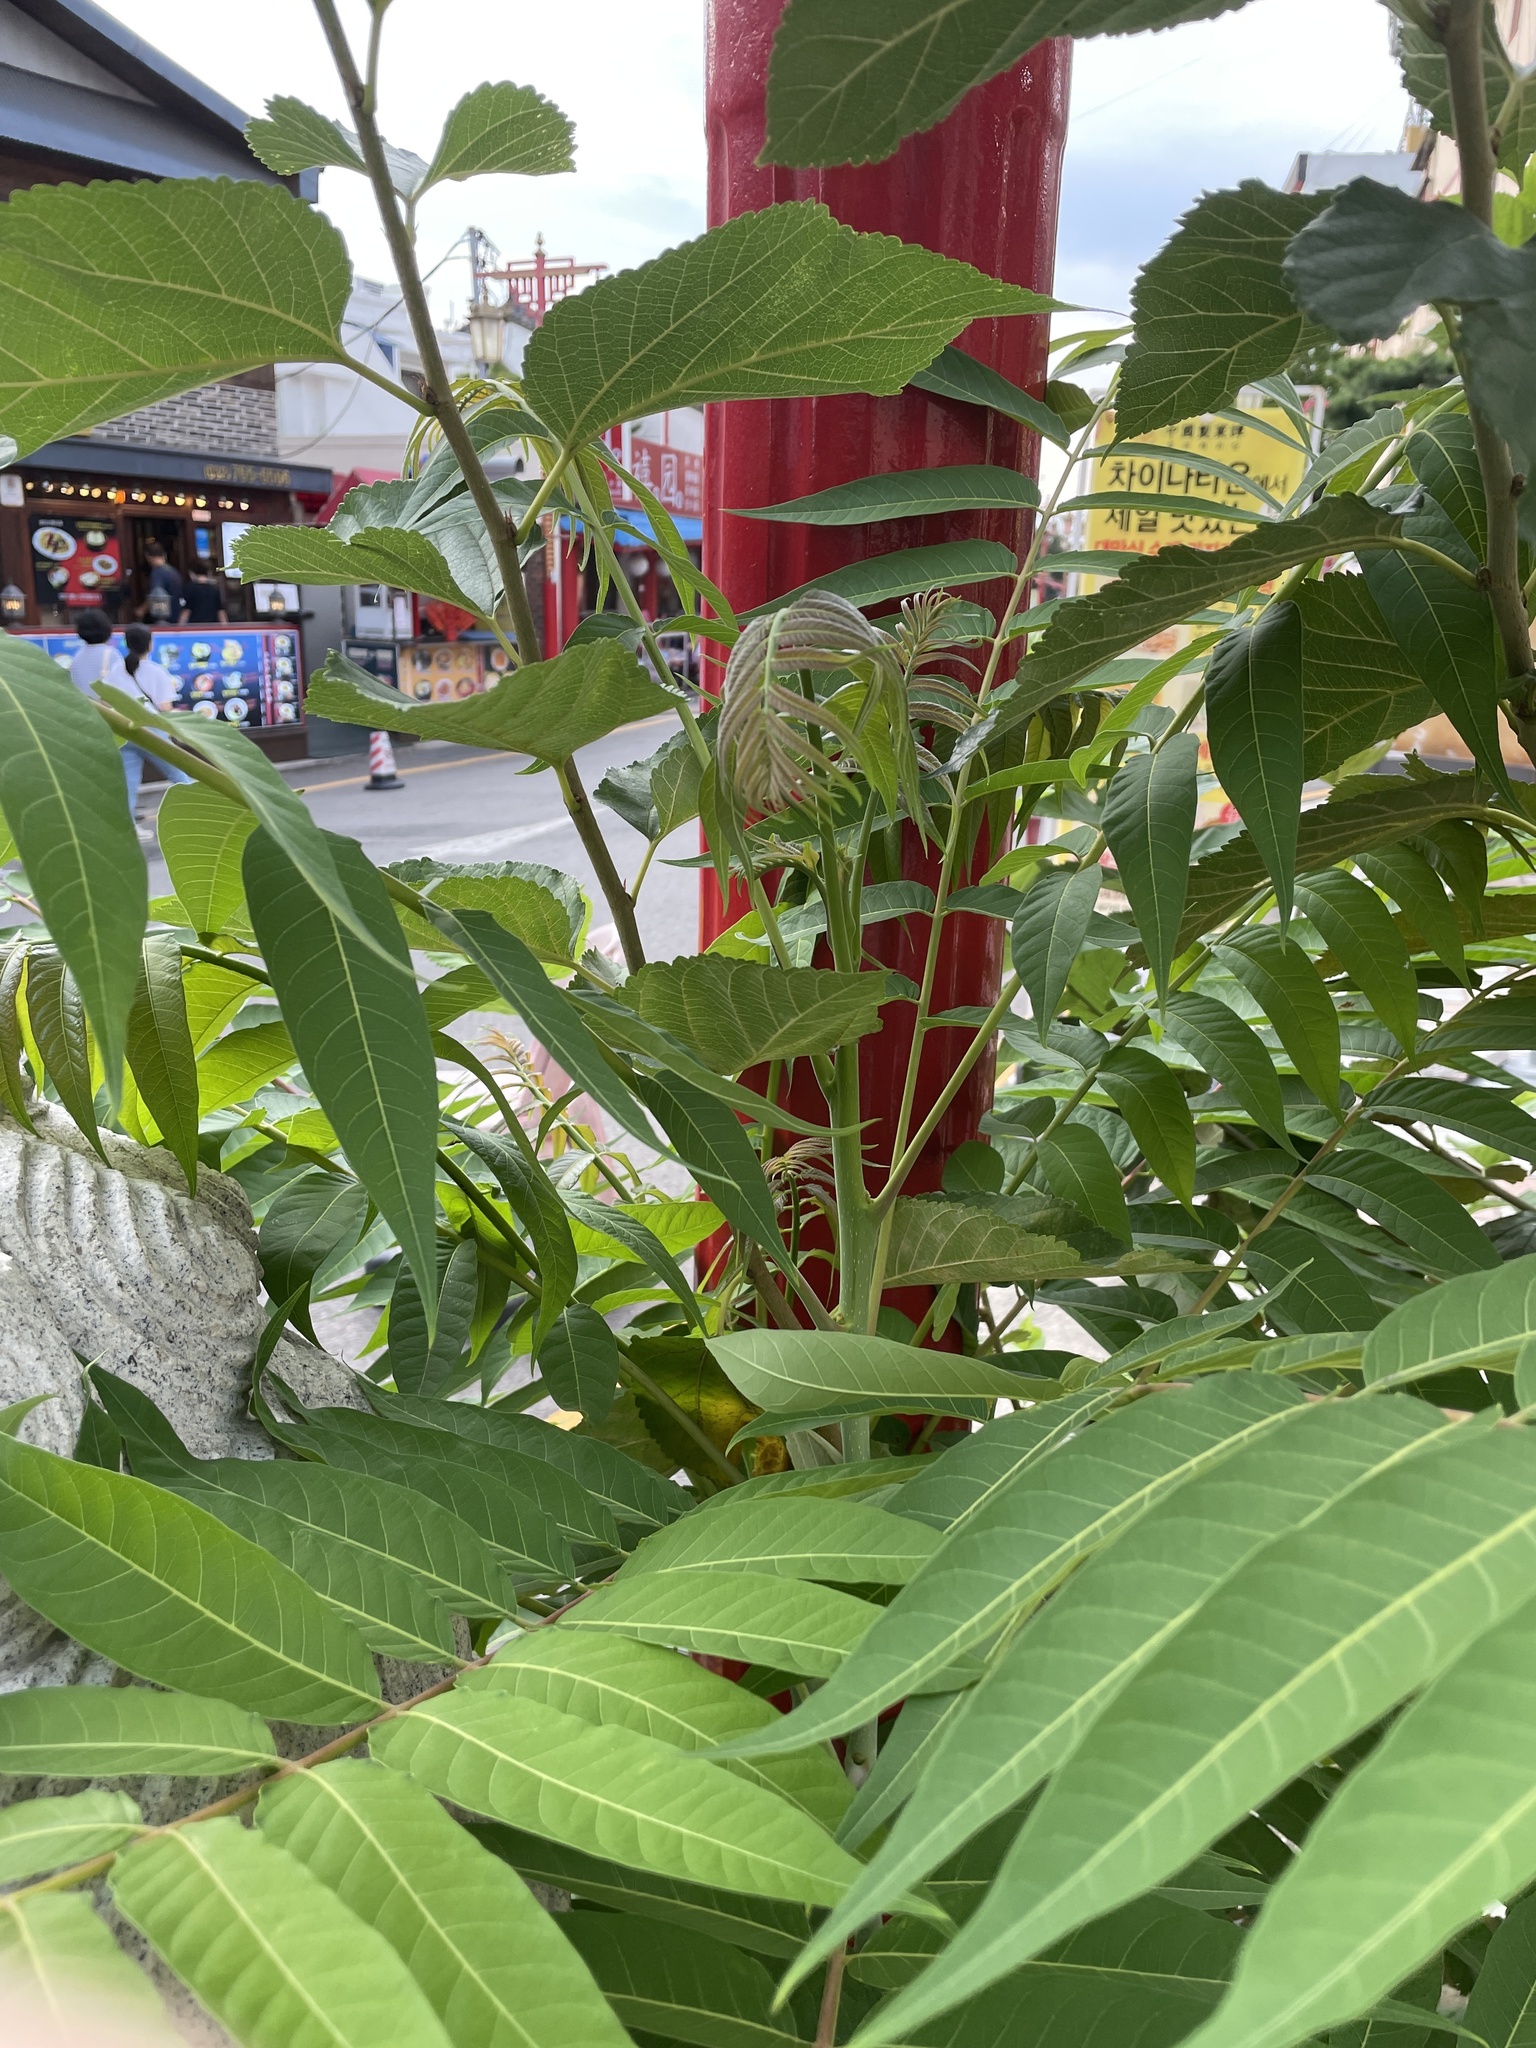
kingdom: Plantae
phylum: Tracheophyta
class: Magnoliopsida
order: Sapindales
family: Simaroubaceae
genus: Ailanthus
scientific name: Ailanthus altissima
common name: Tree-of-heaven
